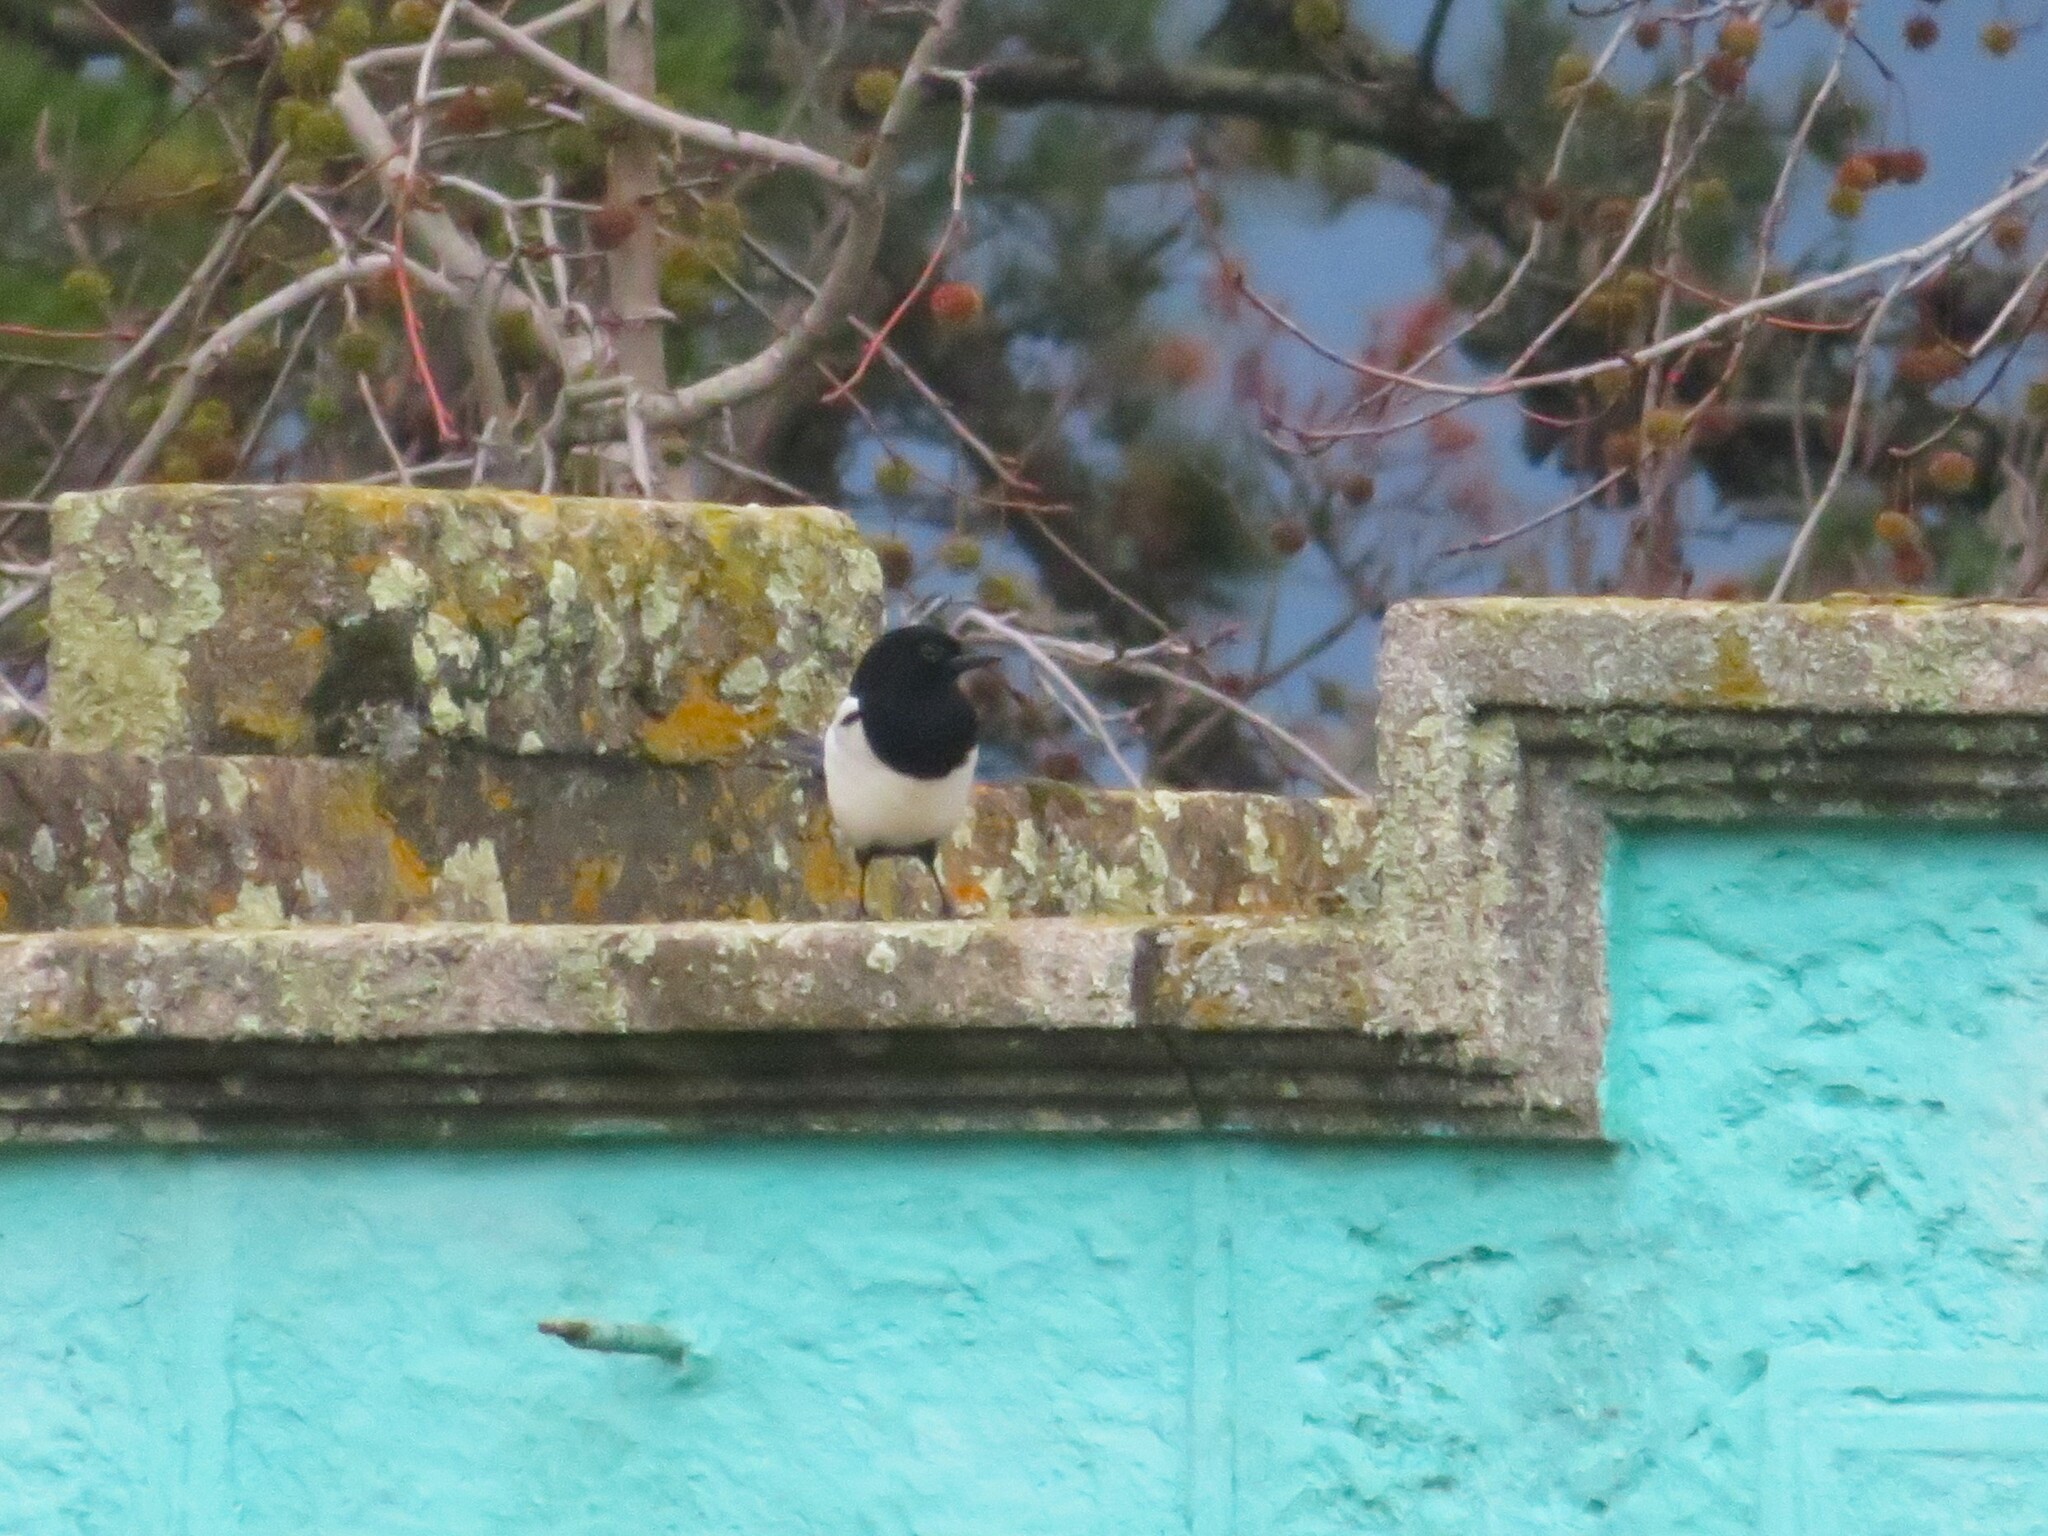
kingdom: Animalia
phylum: Chordata
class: Aves
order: Passeriformes
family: Corvidae
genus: Pica
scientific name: Pica pica
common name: Eurasian magpie
